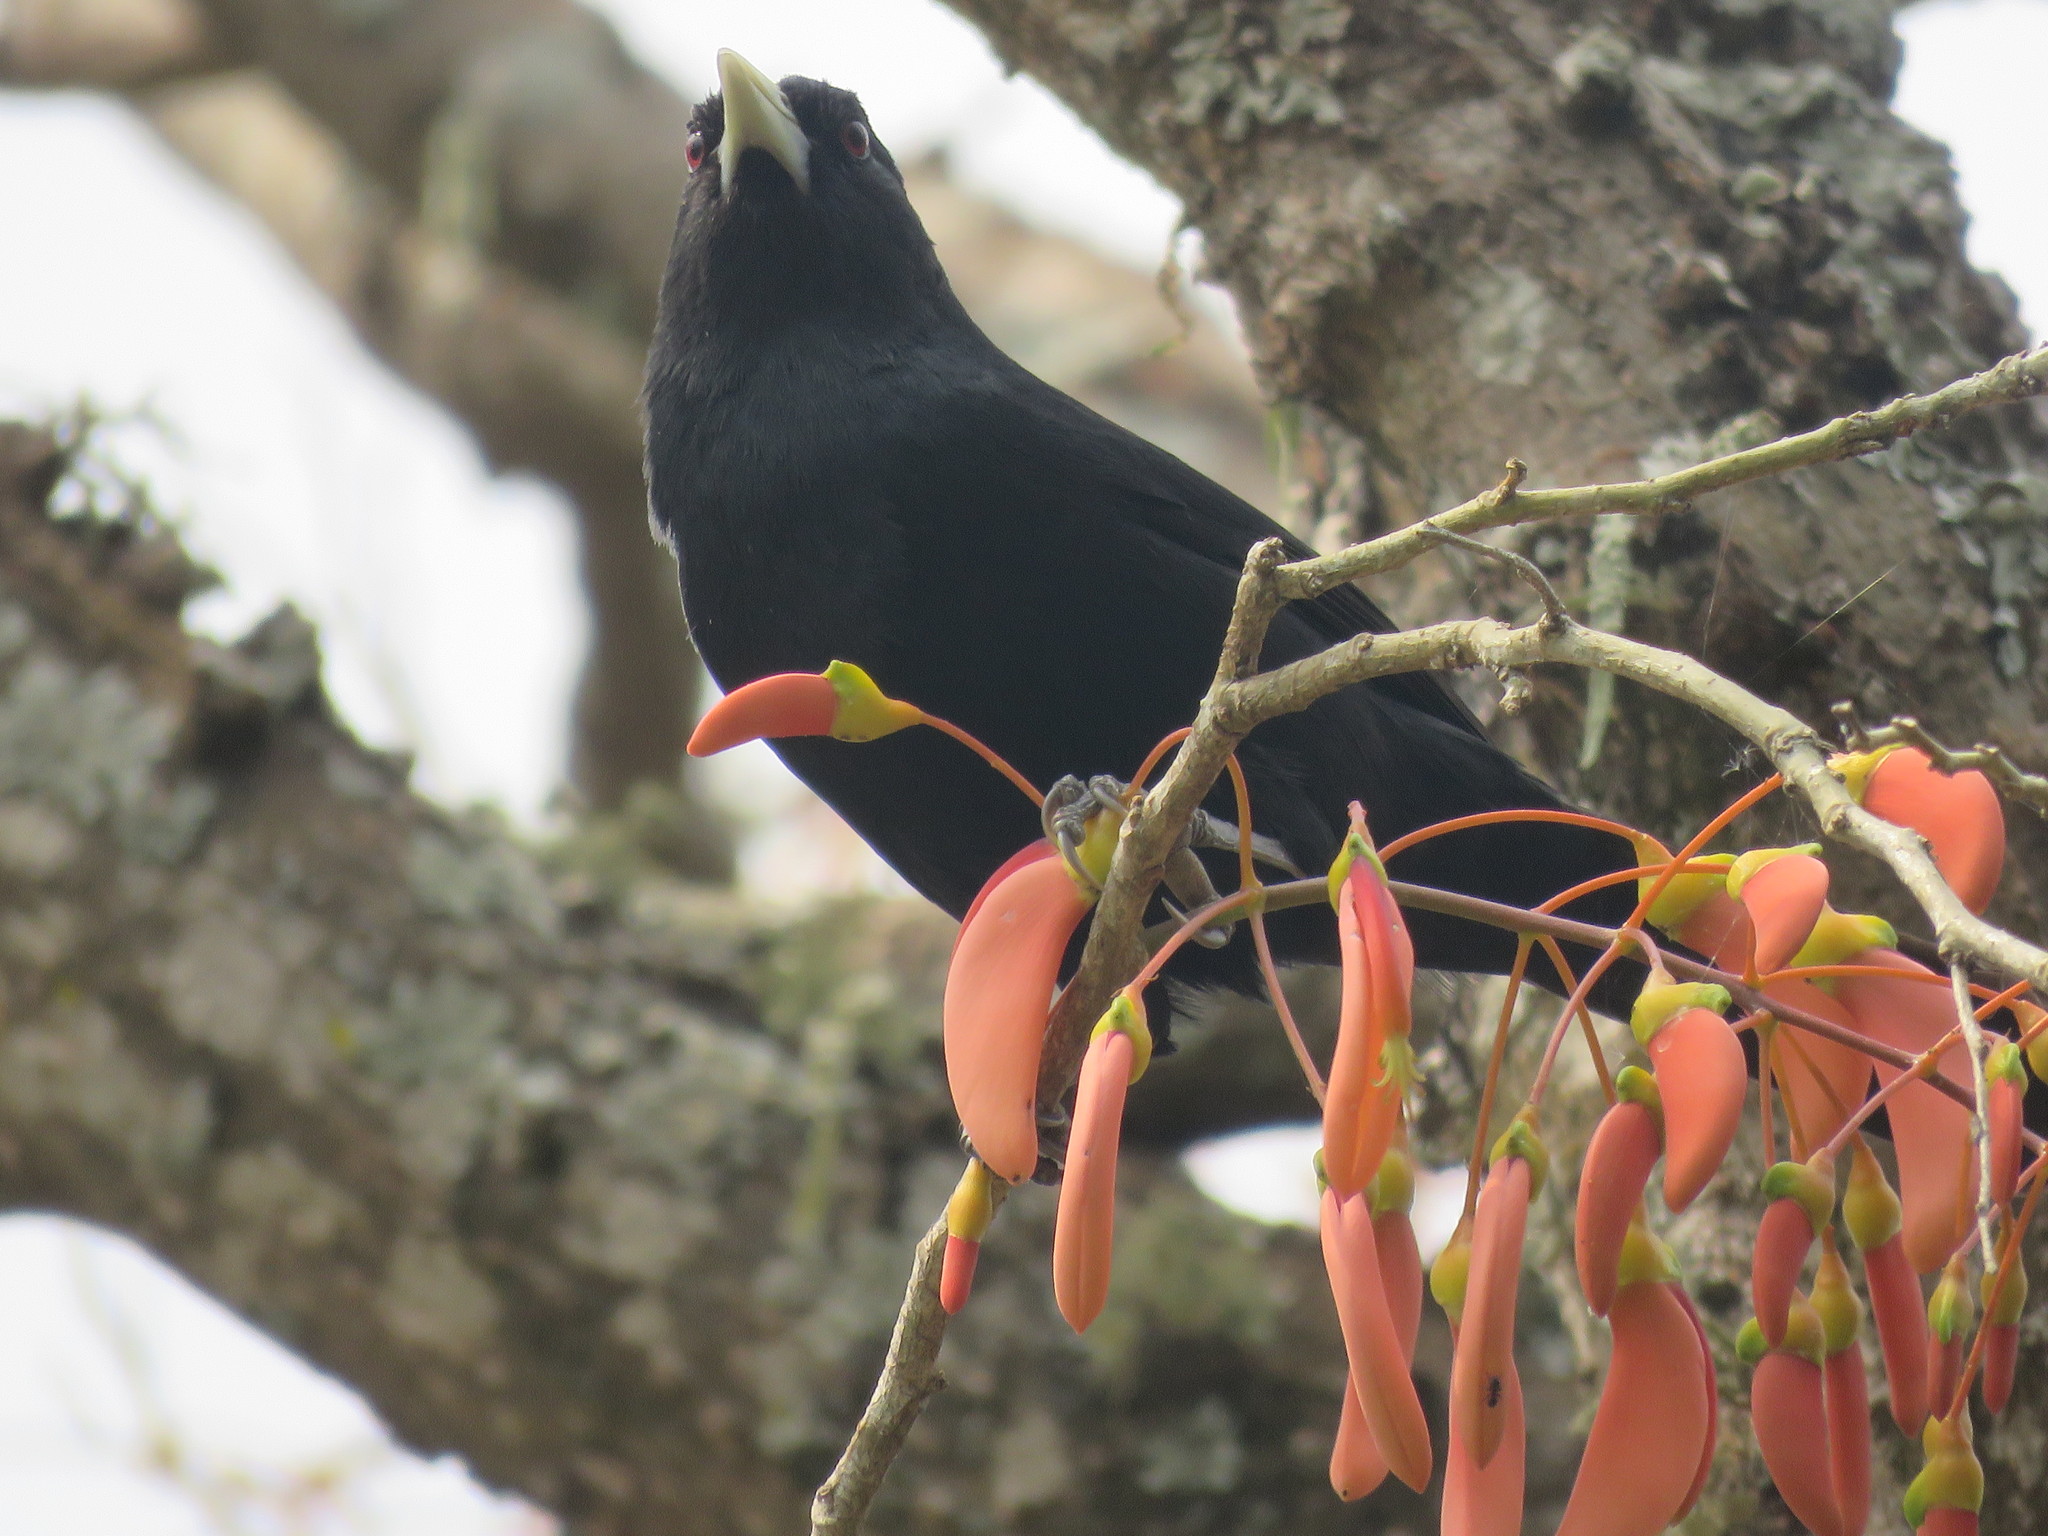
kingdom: Animalia
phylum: Chordata
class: Aves
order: Passeriformes
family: Icteridae
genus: Cacicus
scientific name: Cacicus solitarius
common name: Solitary cacique
